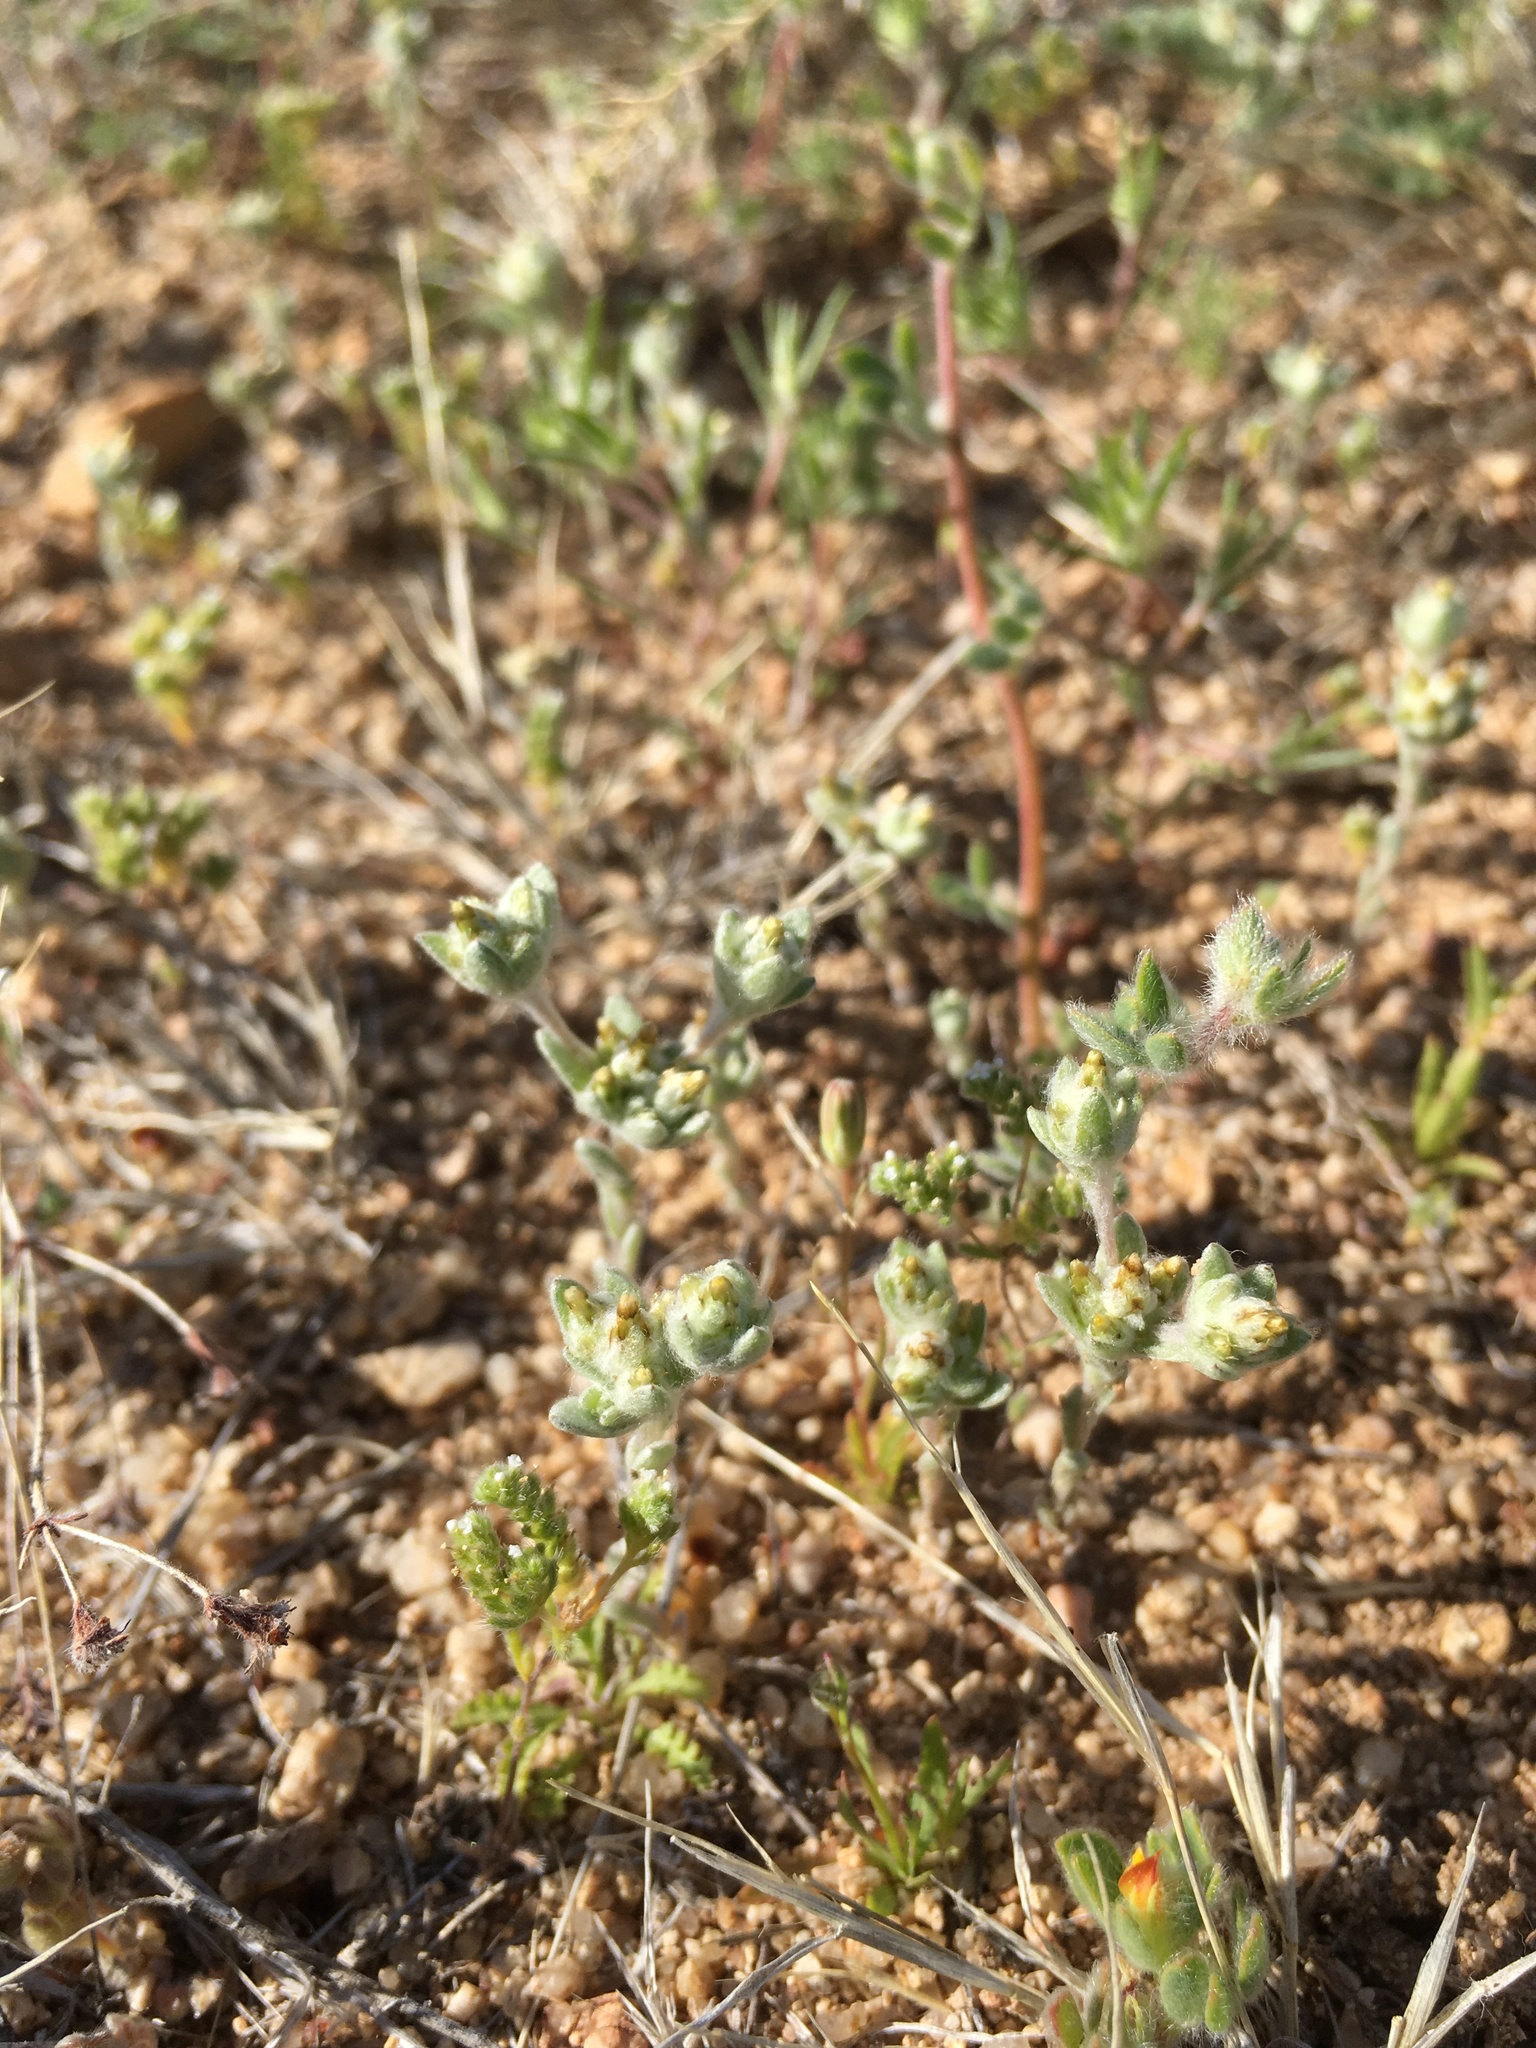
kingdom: Plantae
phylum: Tracheophyta
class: Magnoliopsida
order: Asterales
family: Asteraceae
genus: Logfia
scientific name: Logfia depressa
